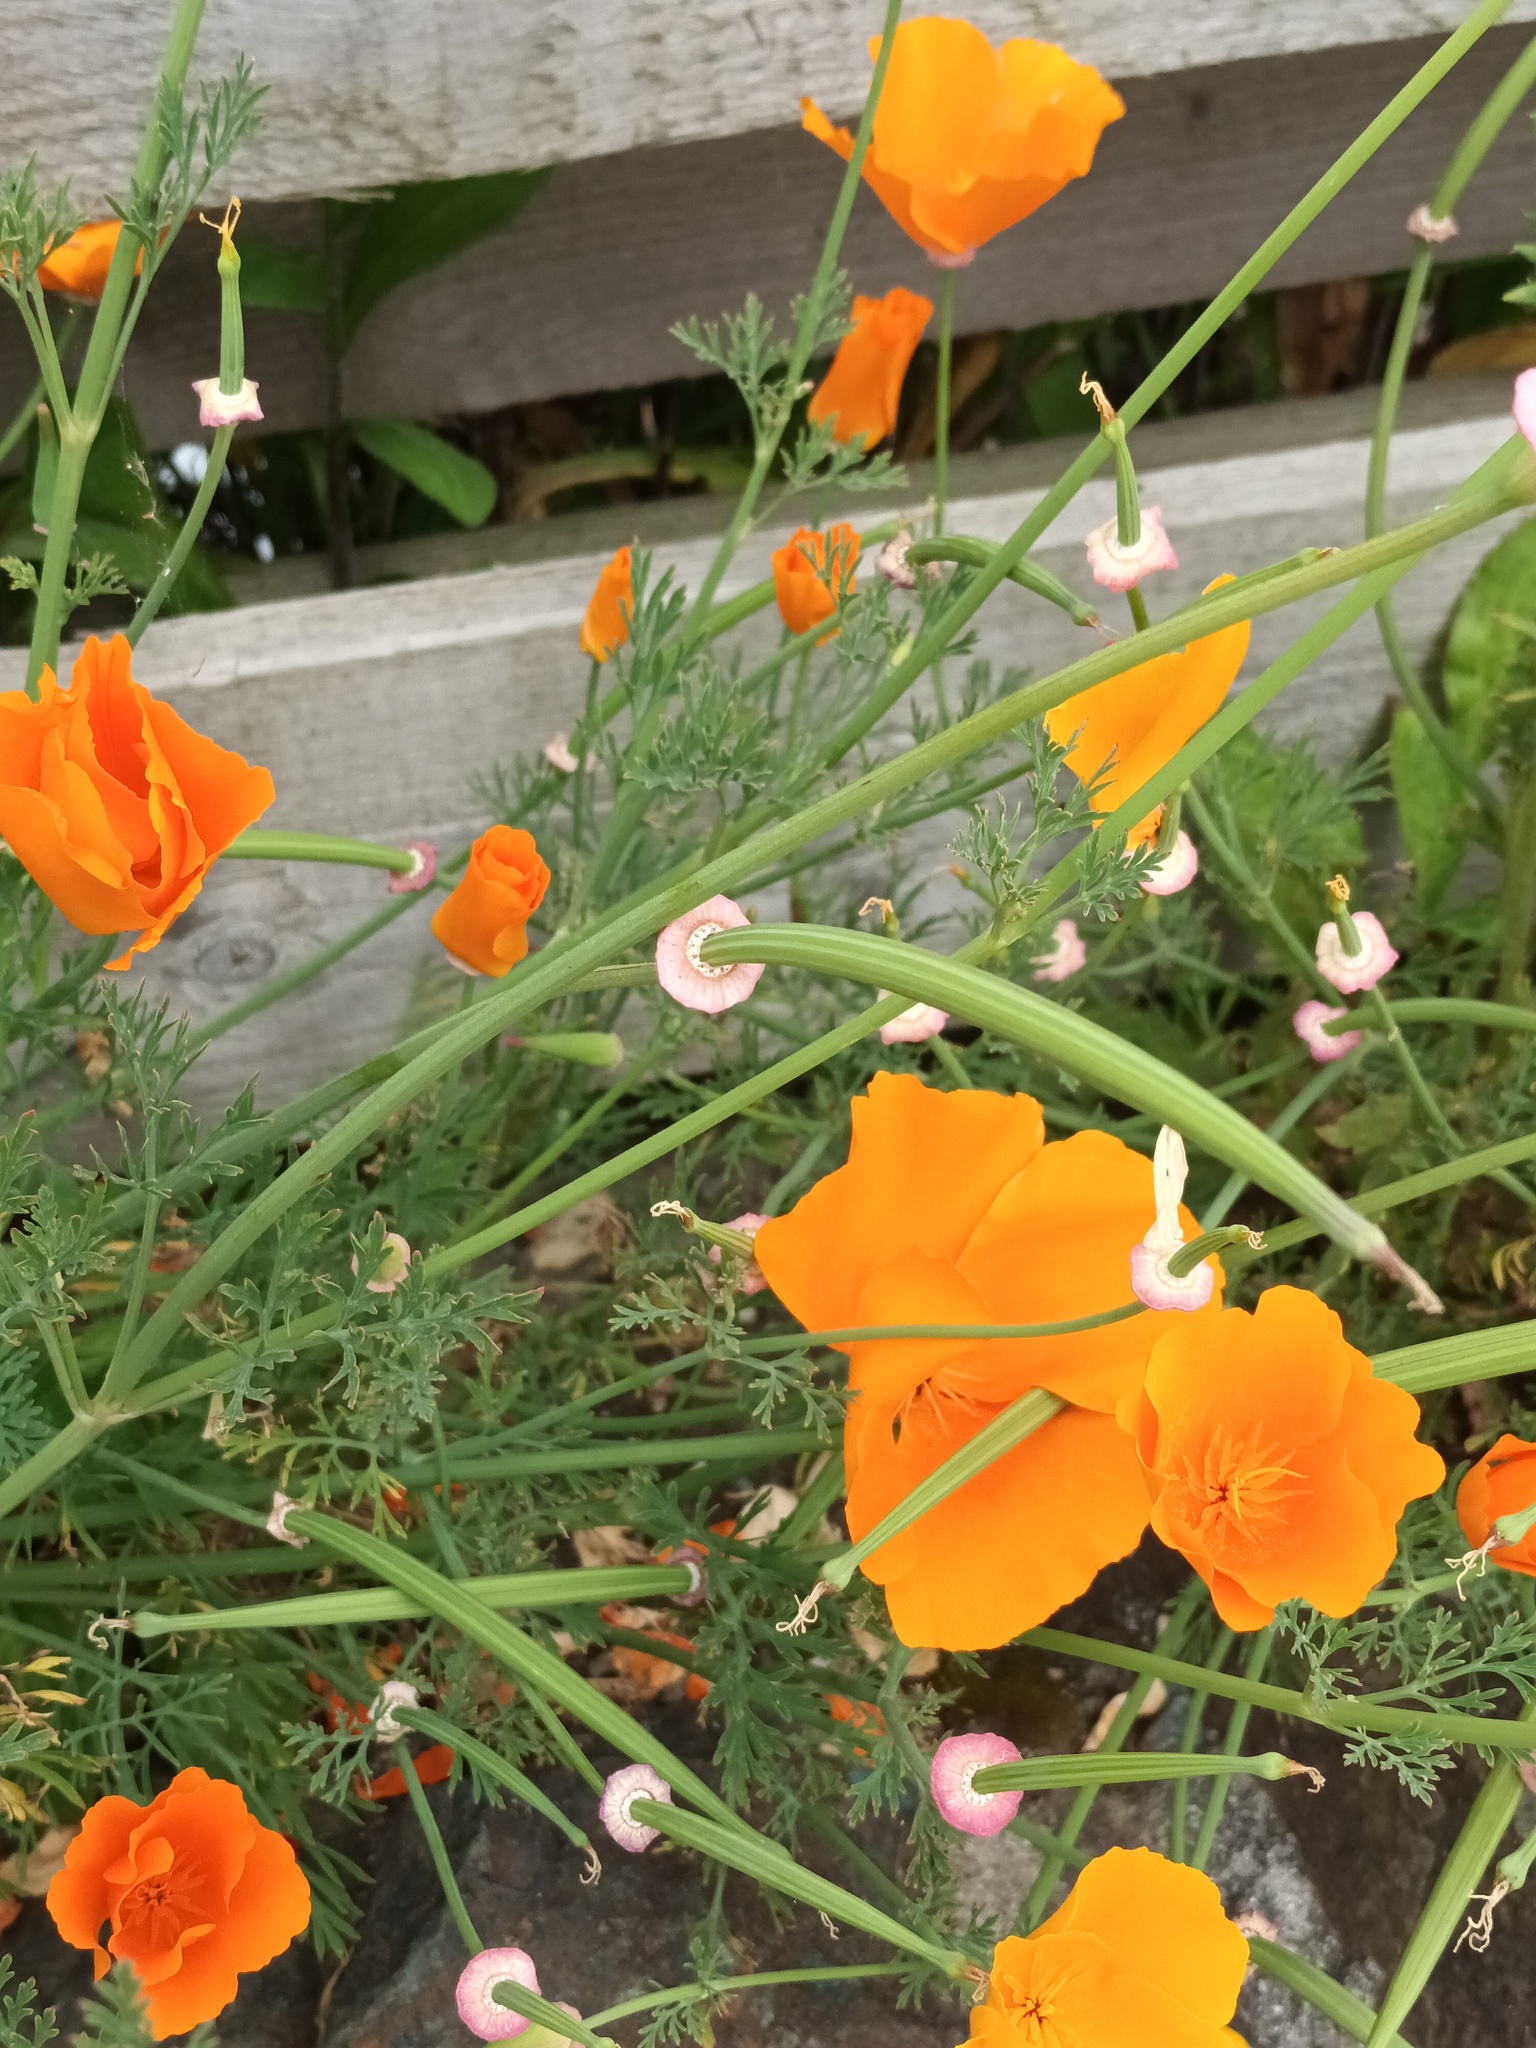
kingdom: Plantae
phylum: Tracheophyta
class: Magnoliopsida
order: Ranunculales
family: Papaveraceae
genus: Eschscholzia
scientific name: Eschscholzia californica
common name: California poppy
